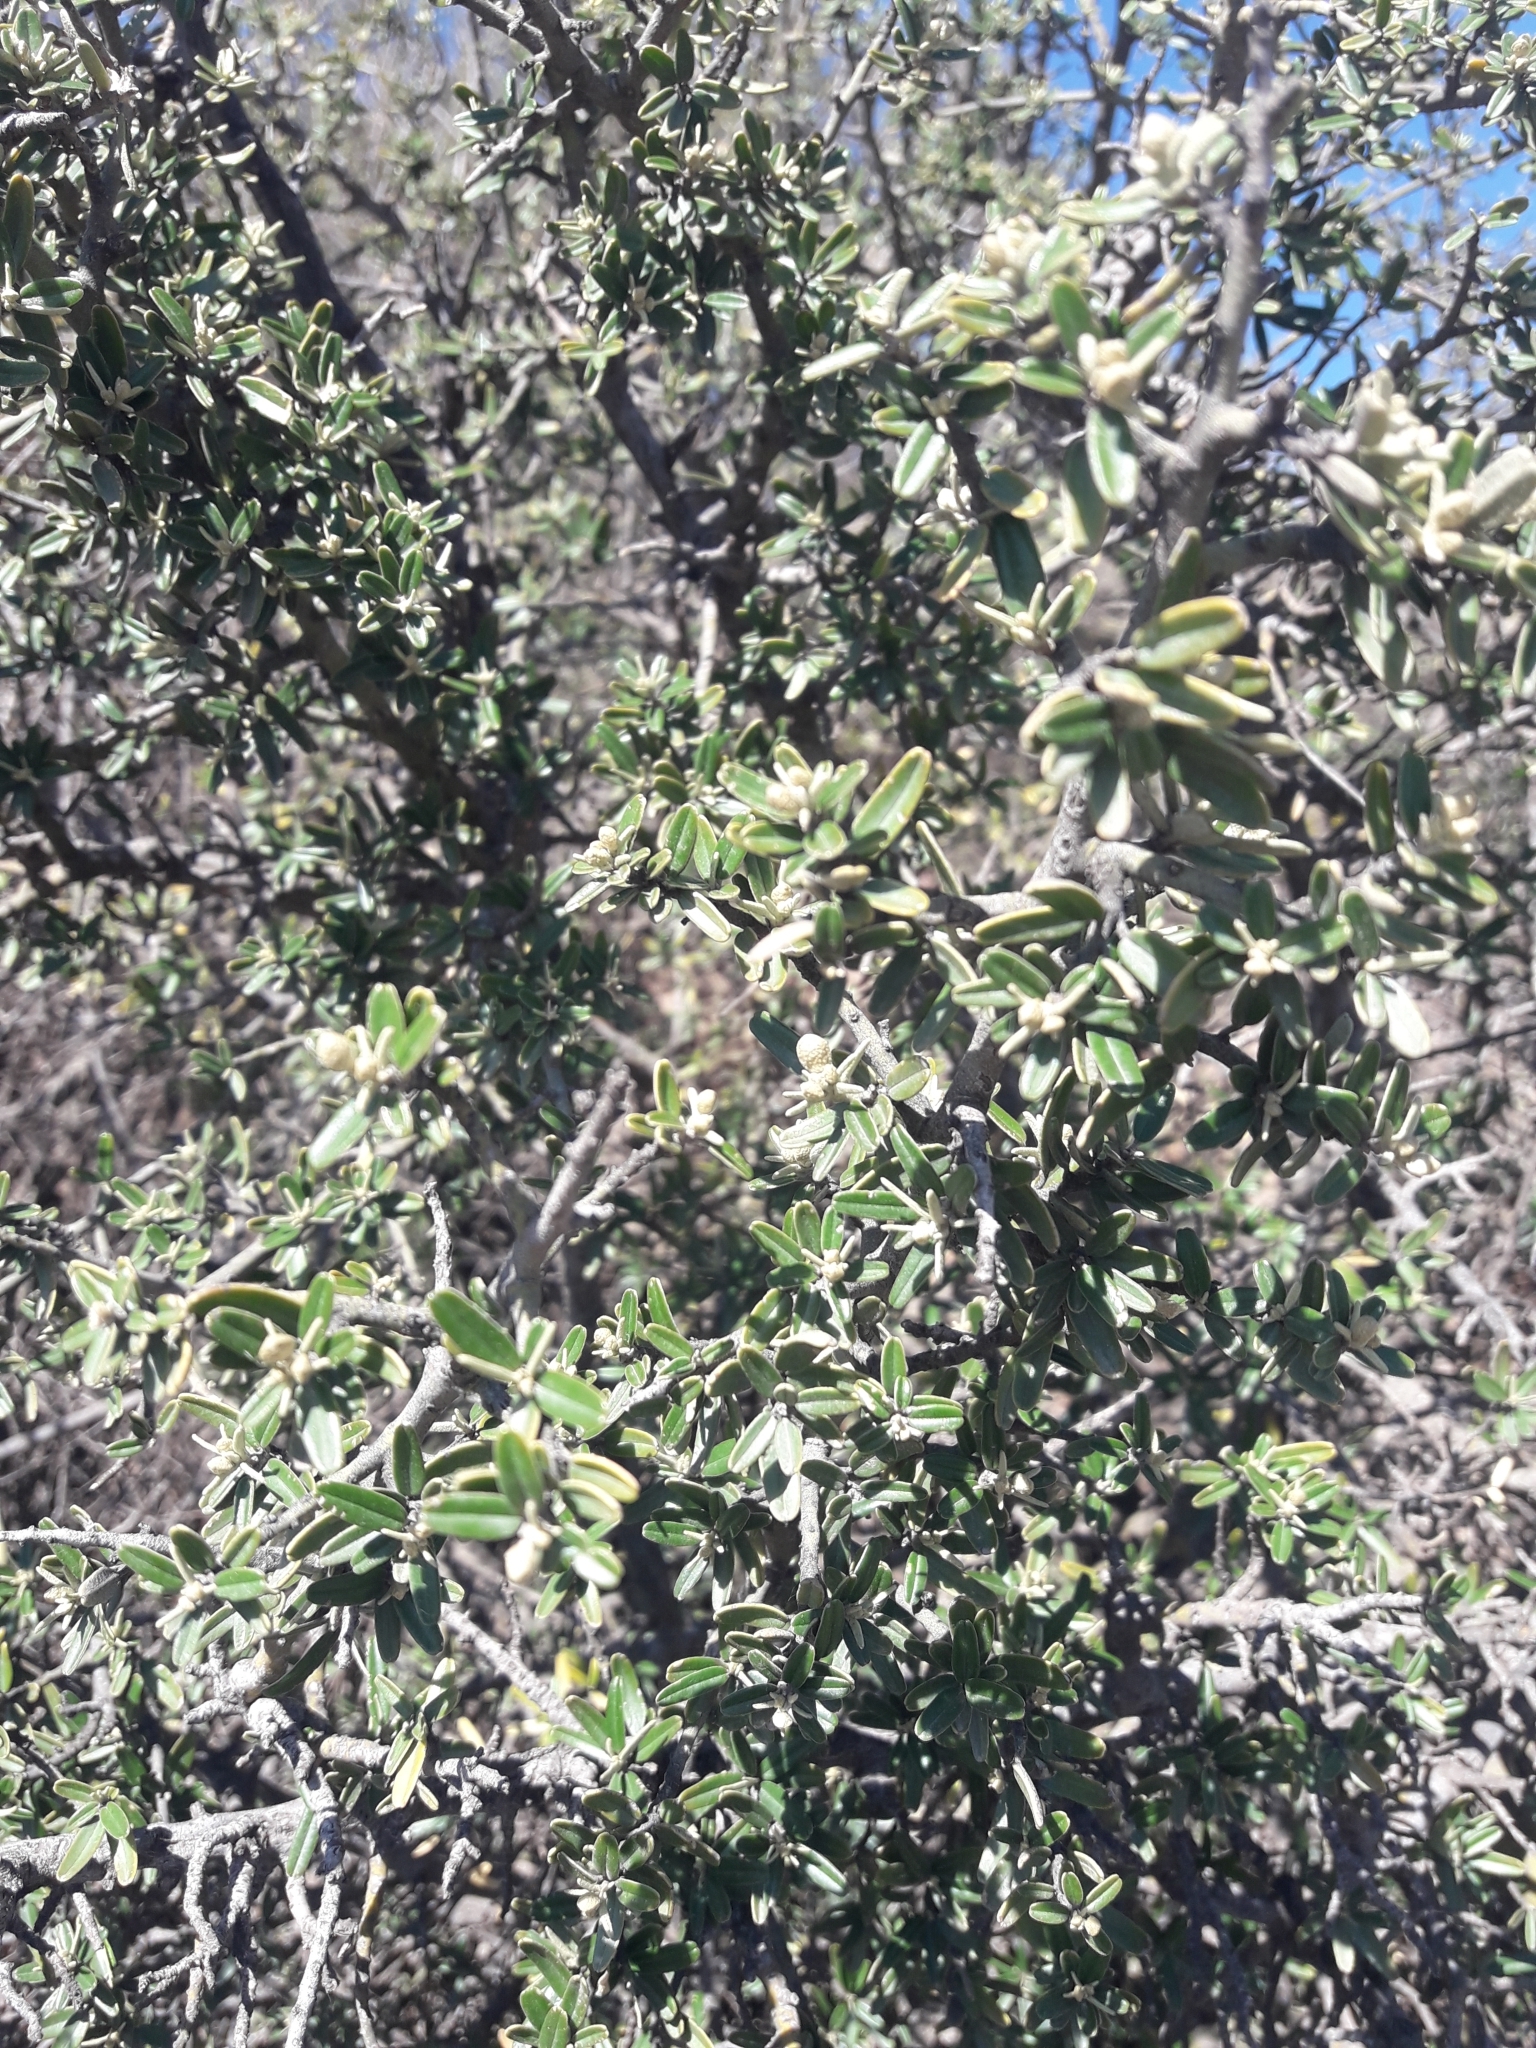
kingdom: Plantae
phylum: Tracheophyta
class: Magnoliopsida
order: Brassicales
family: Capparaceae
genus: Atamisquea
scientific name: Atamisquea emarginata
